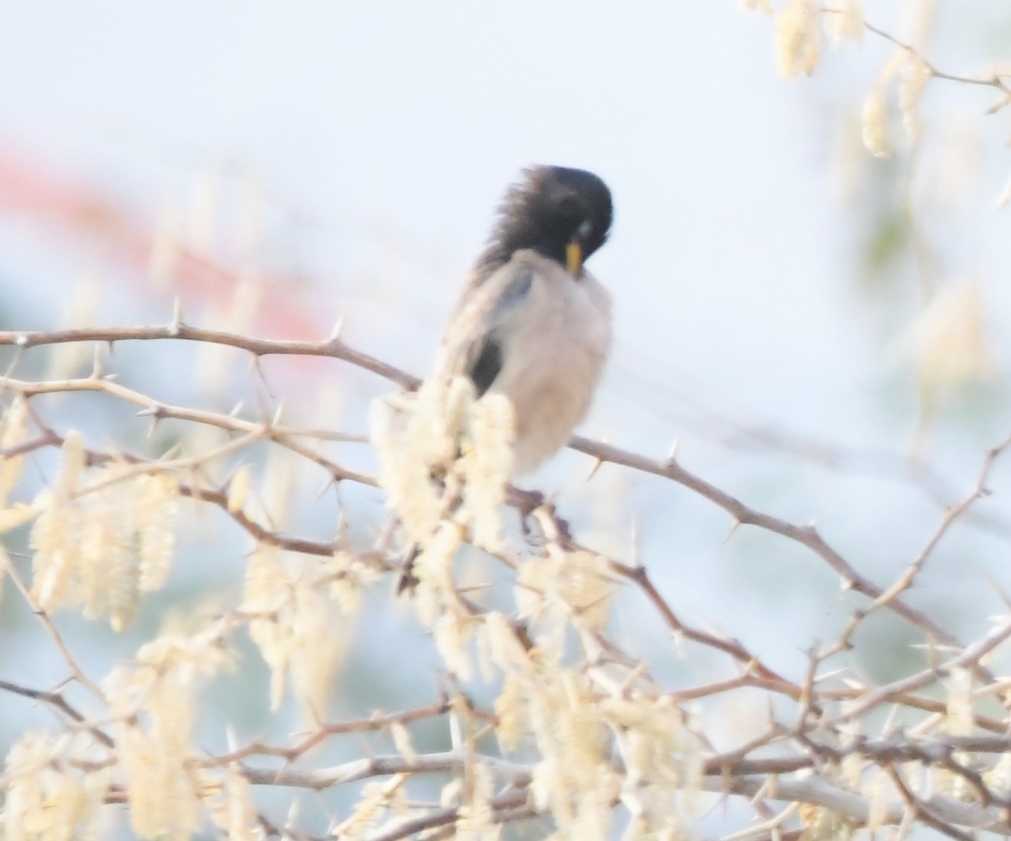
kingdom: Animalia
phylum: Chordata
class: Aves
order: Passeriformes
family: Sturnidae
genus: Pastor
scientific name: Pastor roseus
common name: Rosy starling
